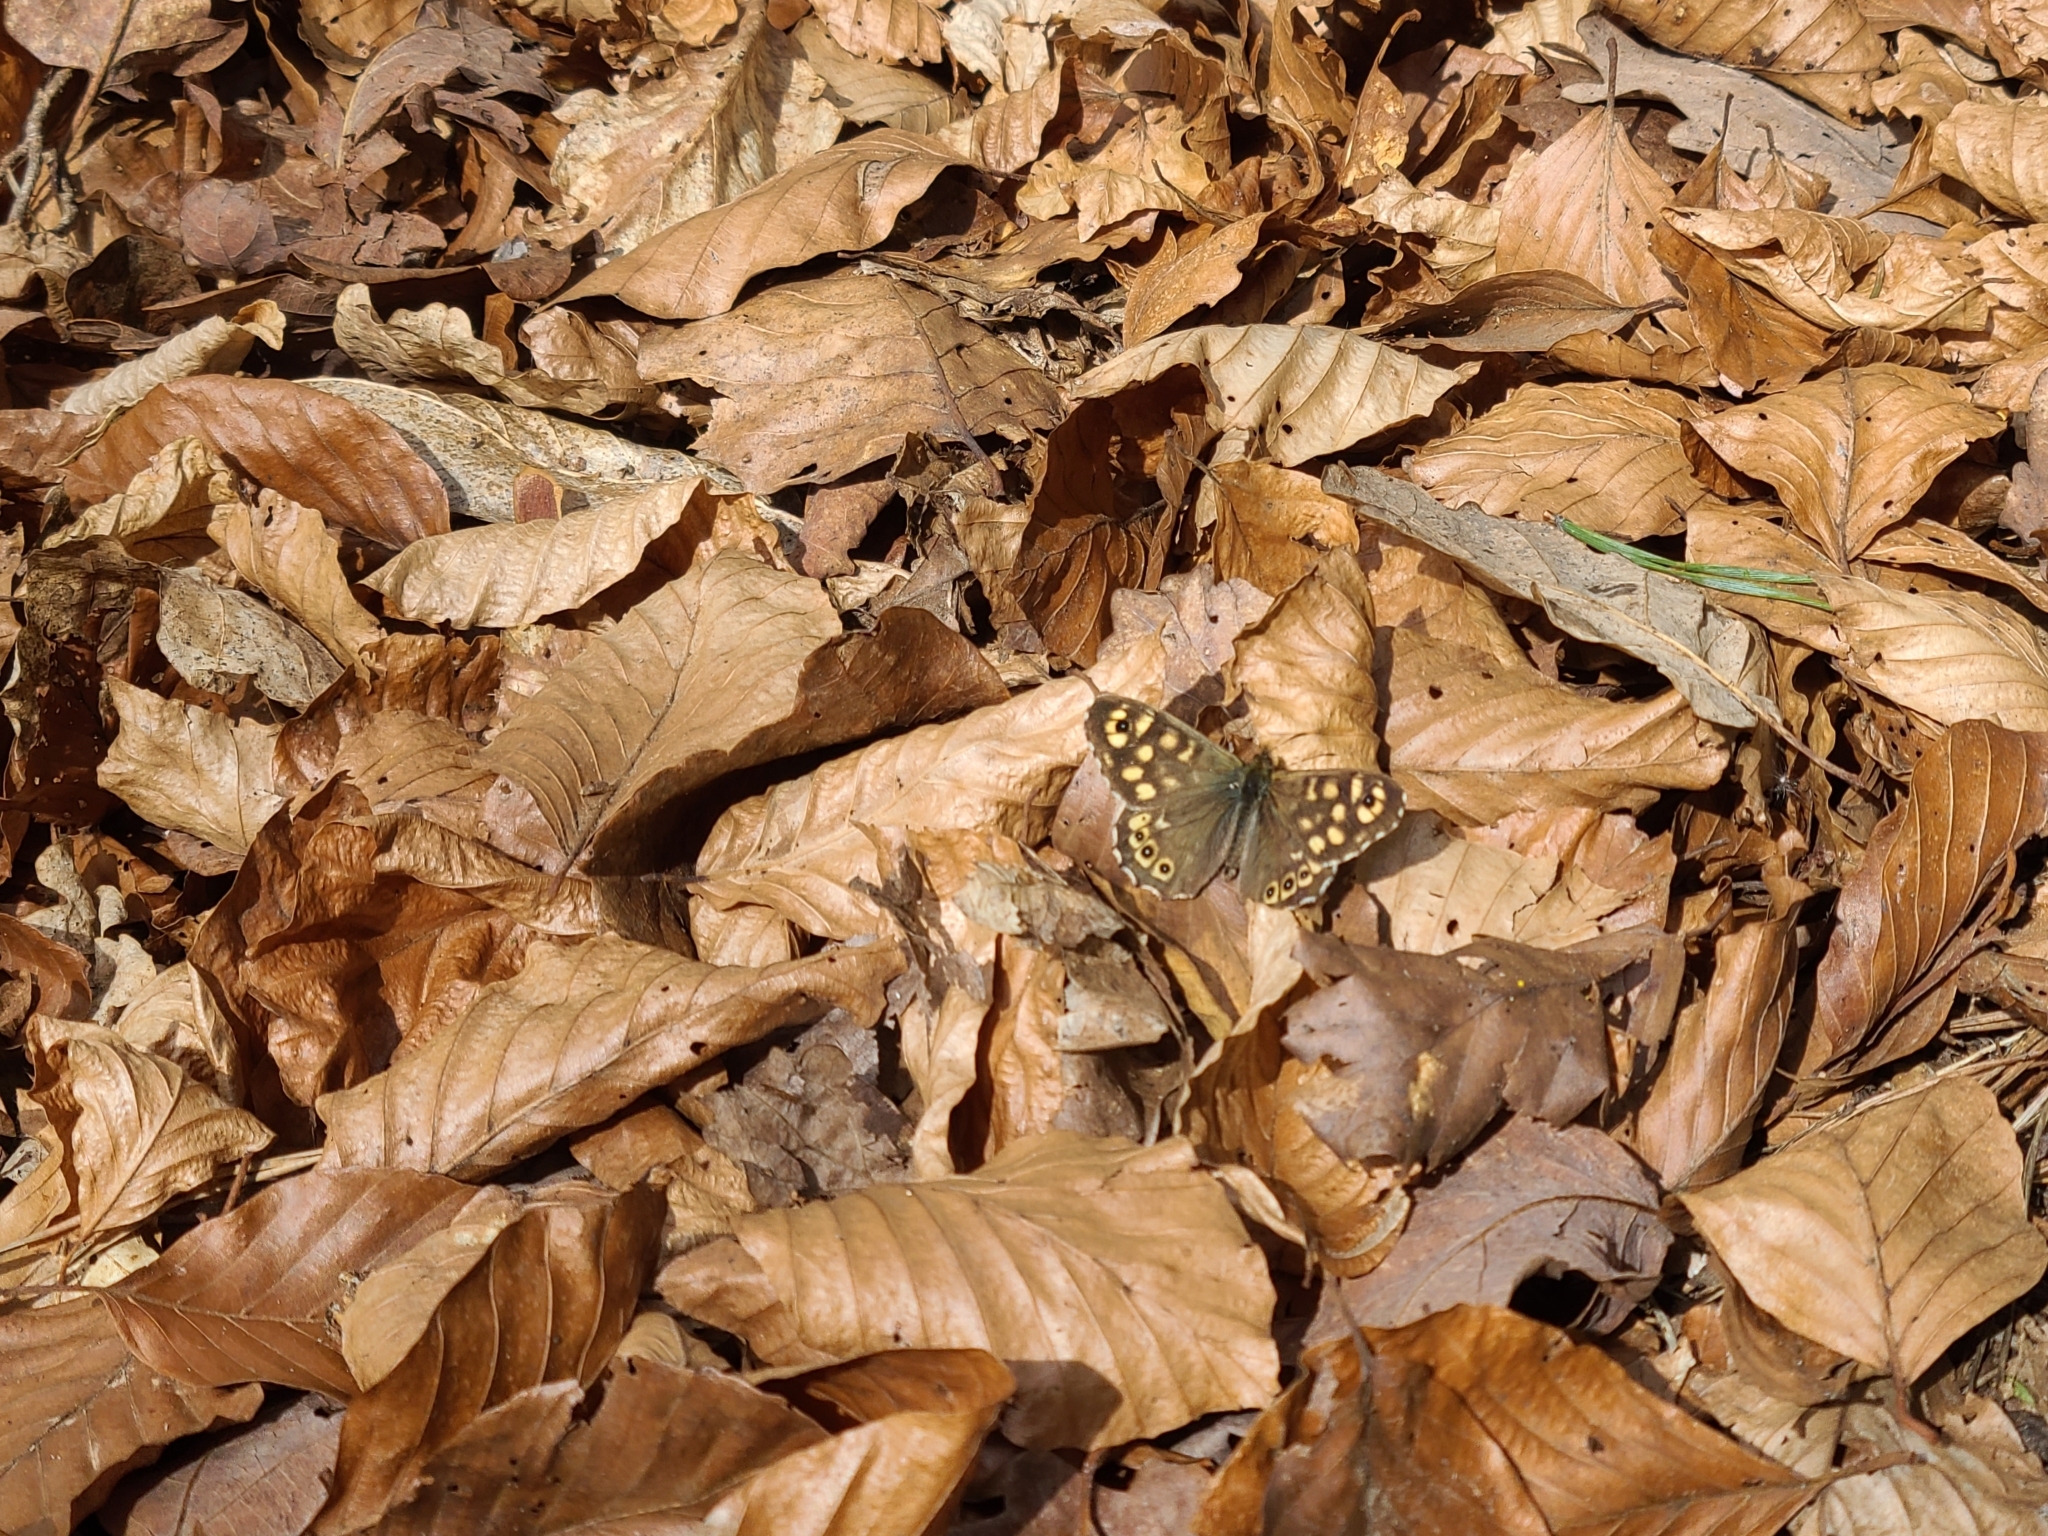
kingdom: Animalia
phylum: Arthropoda
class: Insecta
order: Lepidoptera
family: Nymphalidae
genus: Pararge
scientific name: Pararge aegeria
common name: Speckled wood
